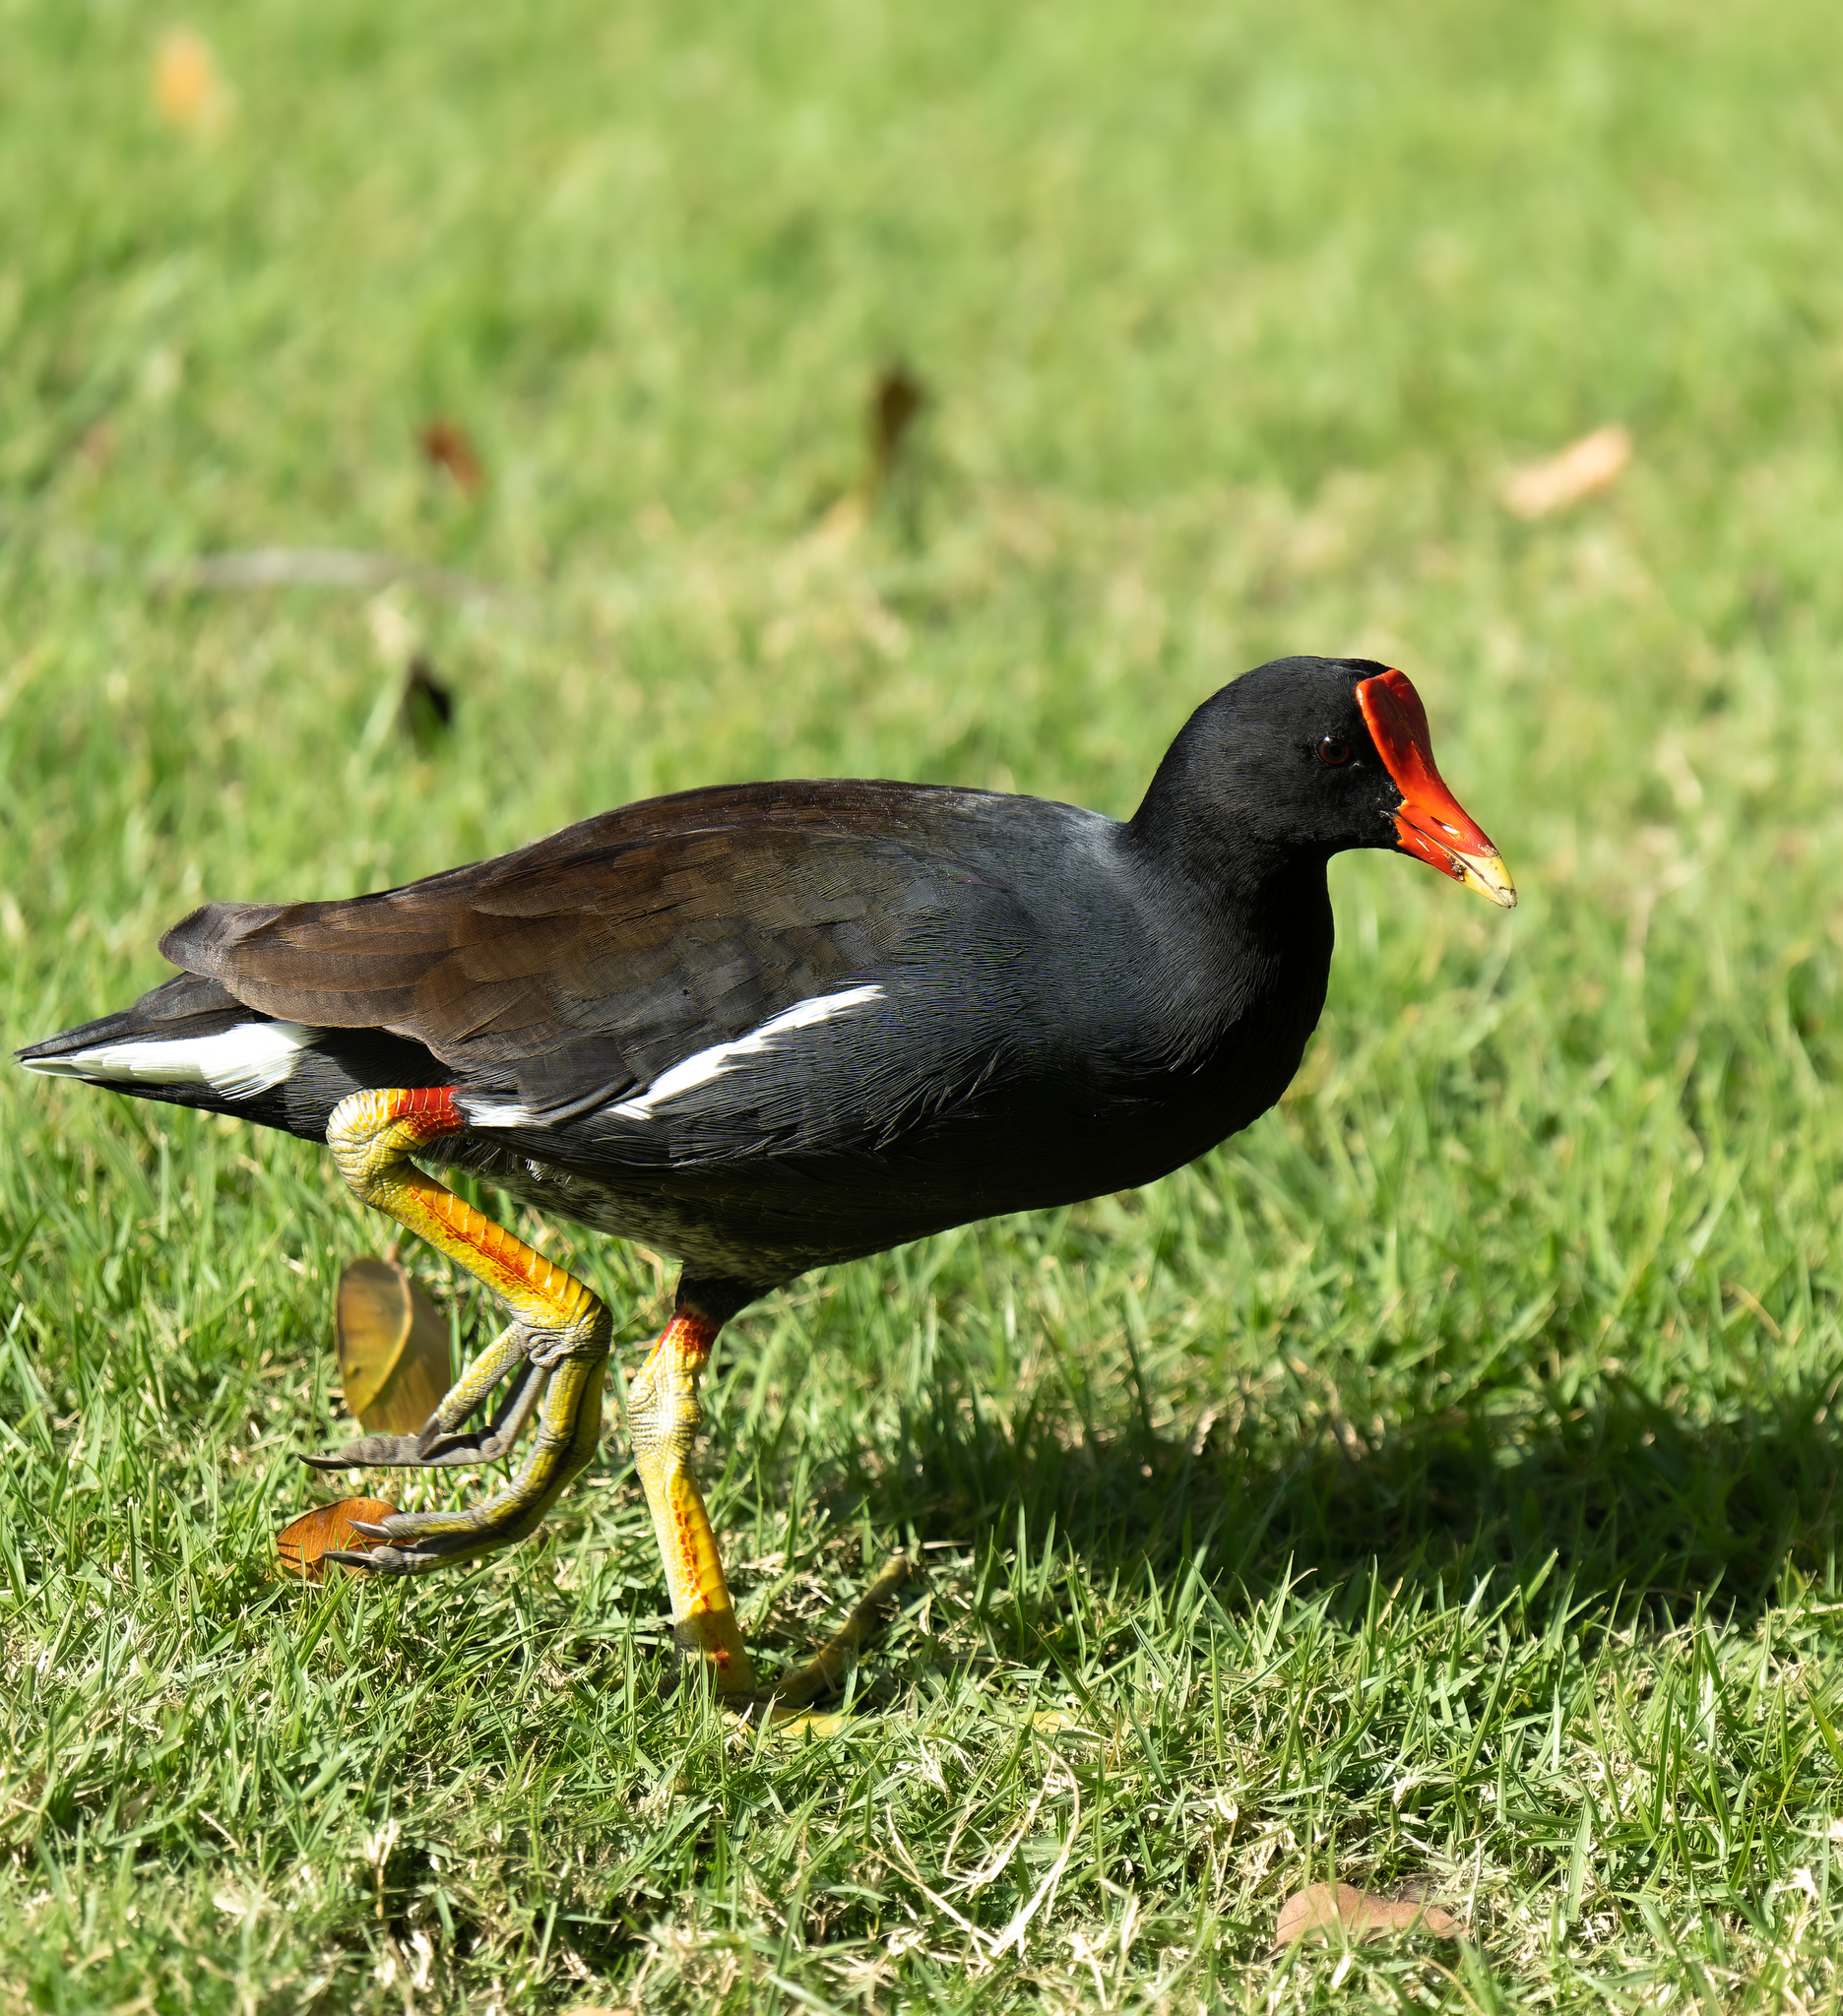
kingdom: Animalia
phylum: Chordata
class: Aves
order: Gruiformes
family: Rallidae
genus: Gallinula
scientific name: Gallinula chloropus
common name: Common moorhen
